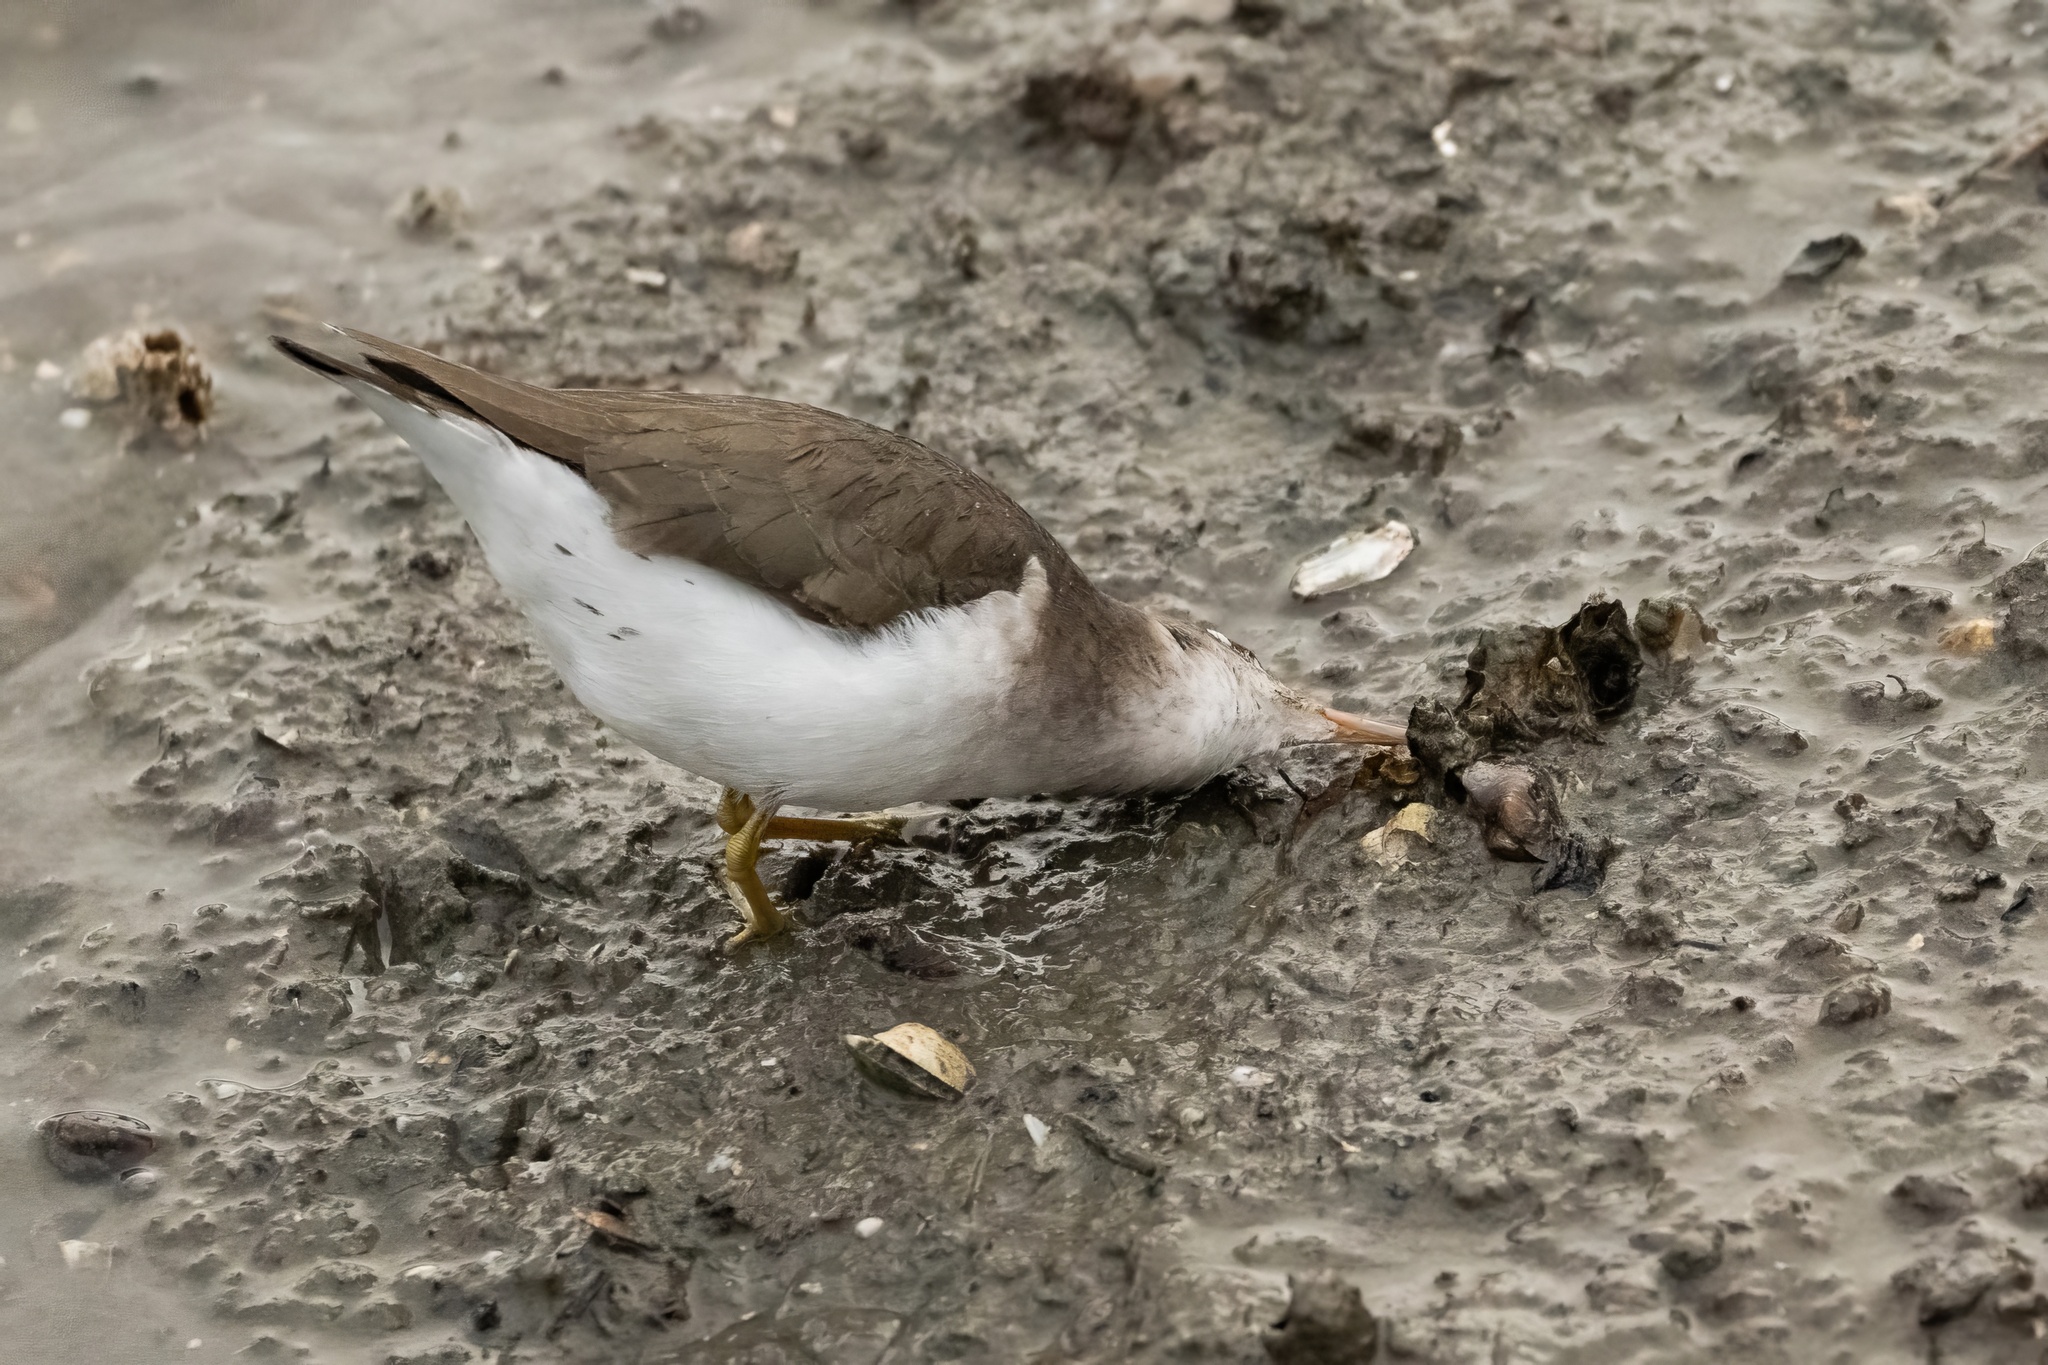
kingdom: Animalia
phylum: Chordata
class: Aves
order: Charadriiformes
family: Scolopacidae
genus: Actitis
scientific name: Actitis macularius
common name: Spotted sandpiper
